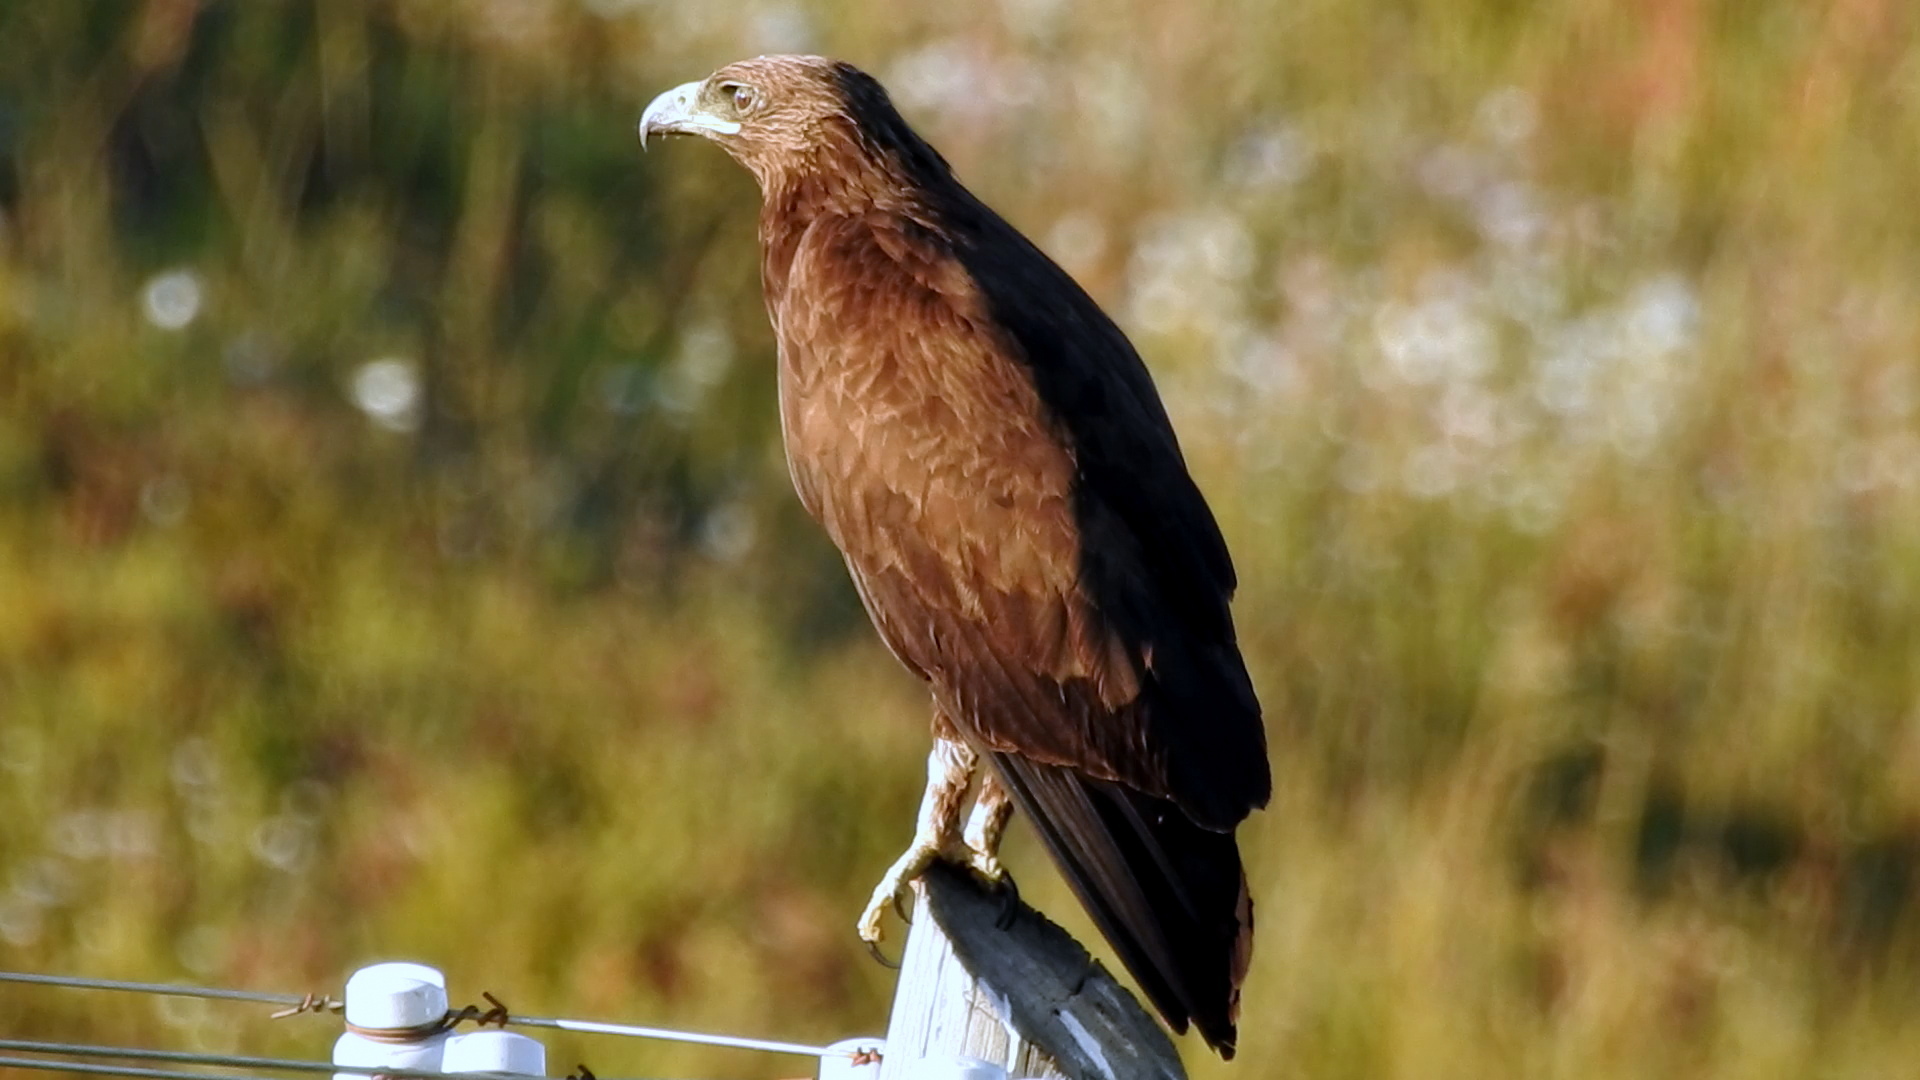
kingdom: Animalia
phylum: Chordata
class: Aves
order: Accipitriformes
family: Accipitridae
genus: Aquila
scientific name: Aquila clanga
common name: Greater spotted eagle
